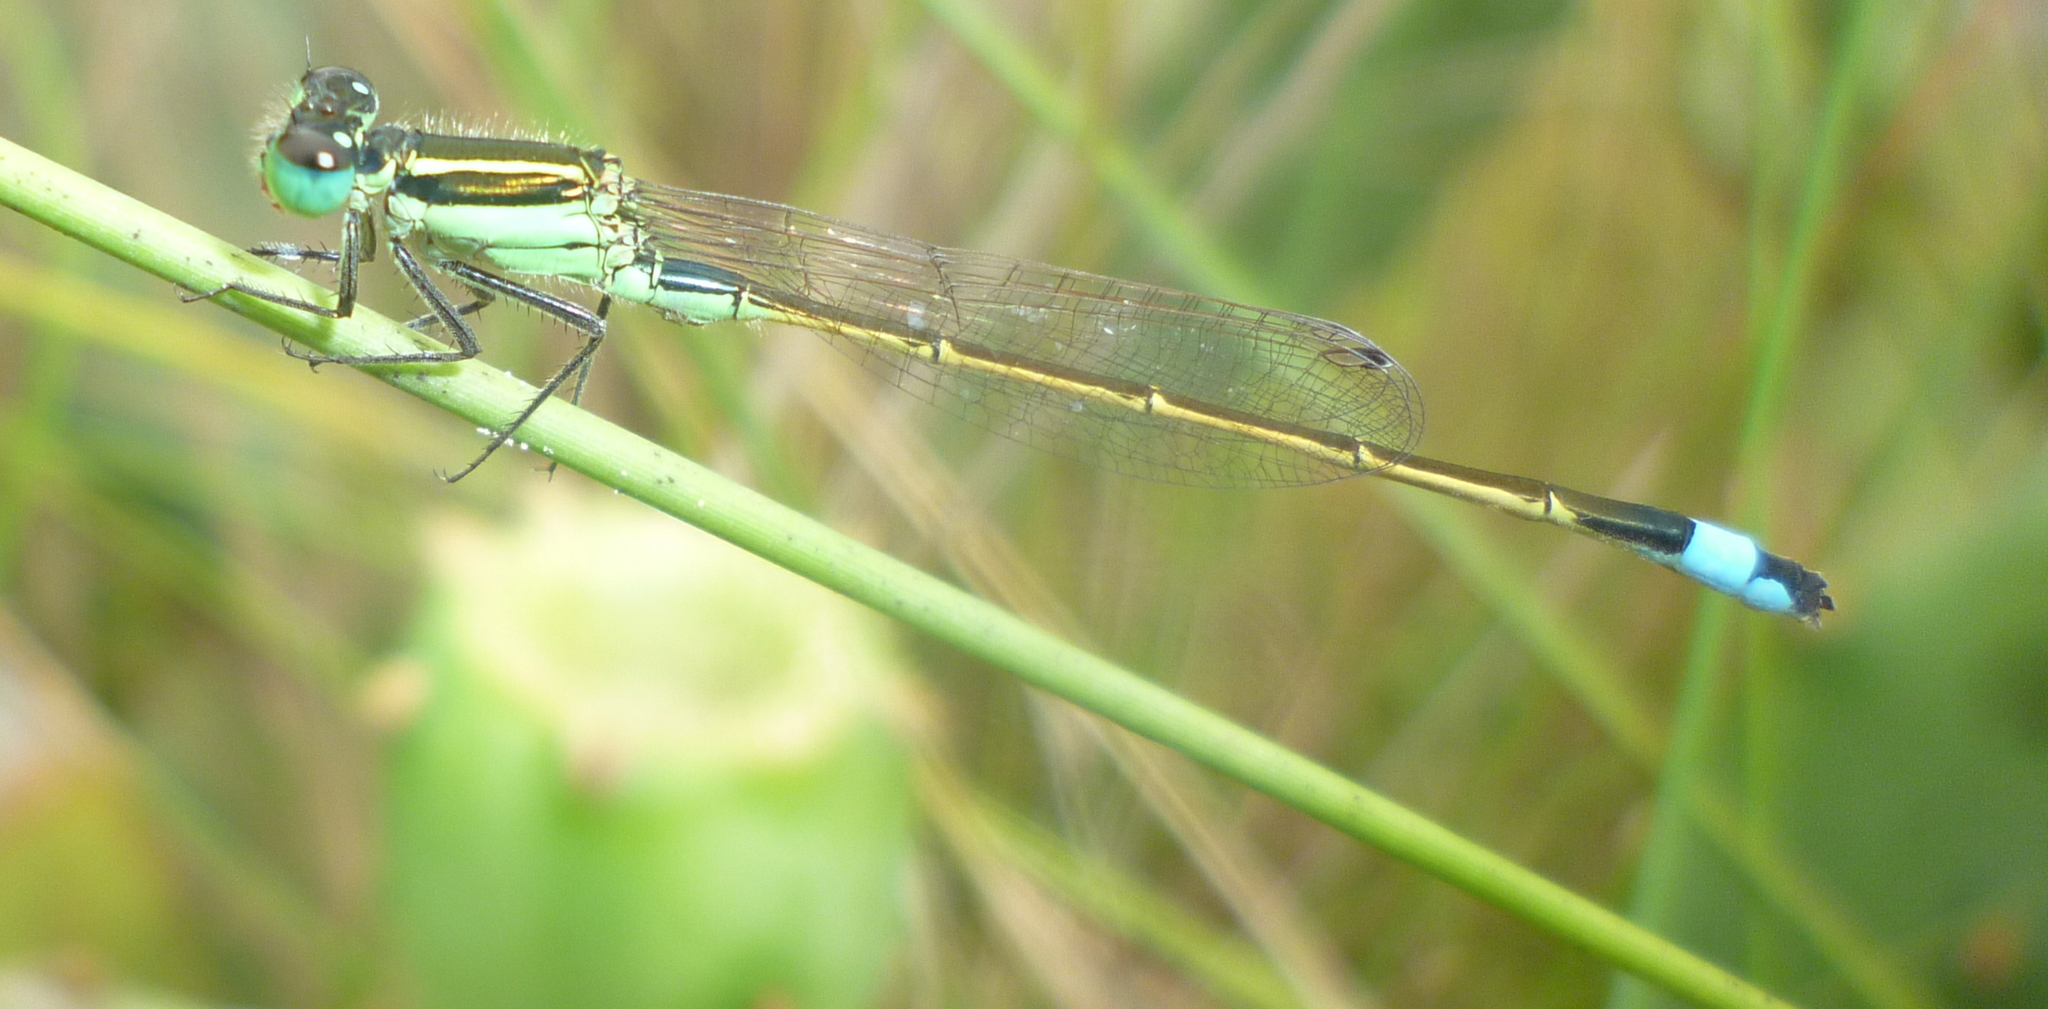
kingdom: Animalia
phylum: Arthropoda
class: Insecta
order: Odonata
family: Coenagrionidae
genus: Ischnura
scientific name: Ischnura ramburii
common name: Rambur's forktail
